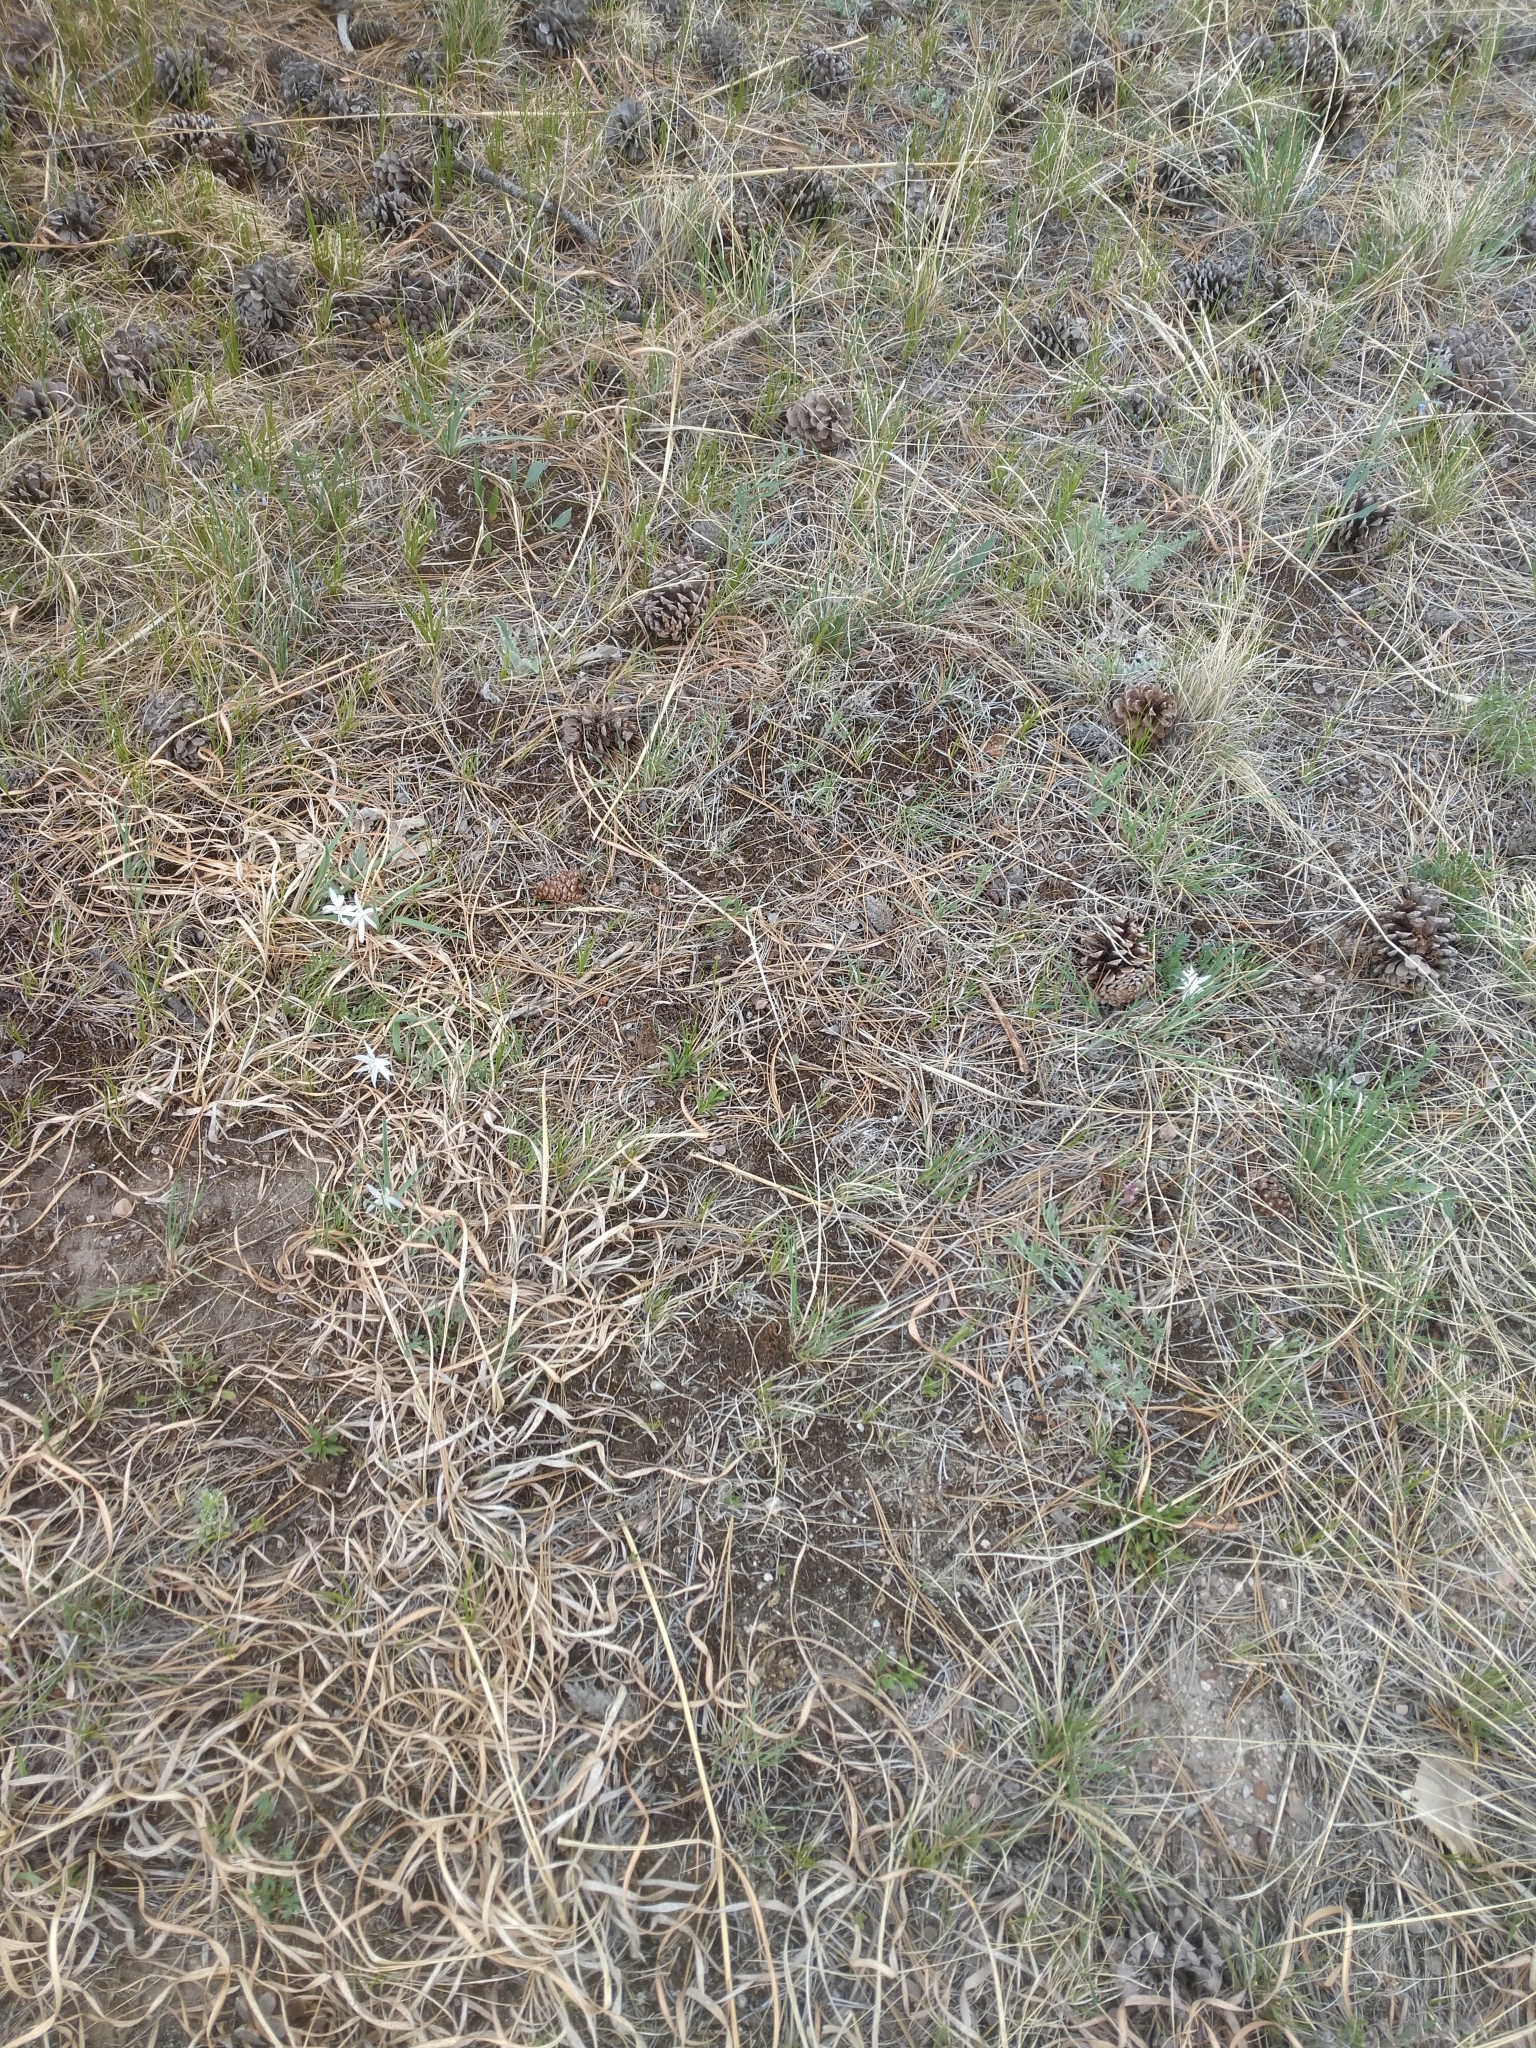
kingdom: Plantae
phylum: Tracheophyta
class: Liliopsida
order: Asparagales
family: Asparagaceae
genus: Leucocrinum
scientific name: Leucocrinum montanum
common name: Mountain-lily
